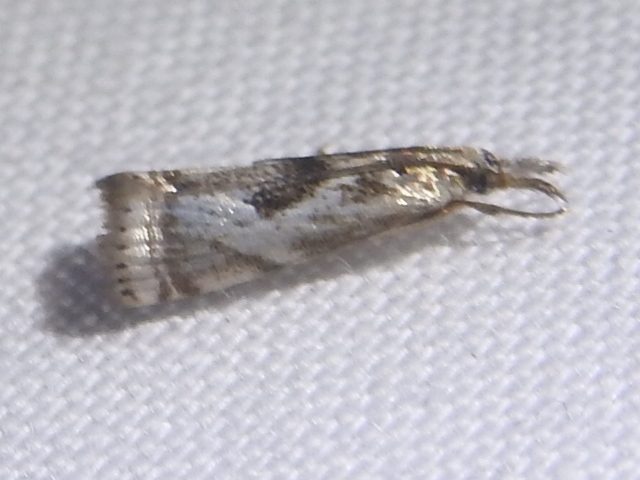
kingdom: Animalia
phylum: Arthropoda
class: Insecta
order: Lepidoptera
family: Crambidae
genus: Microcrambus
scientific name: Microcrambus elegans
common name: Elegant grass-veneer
